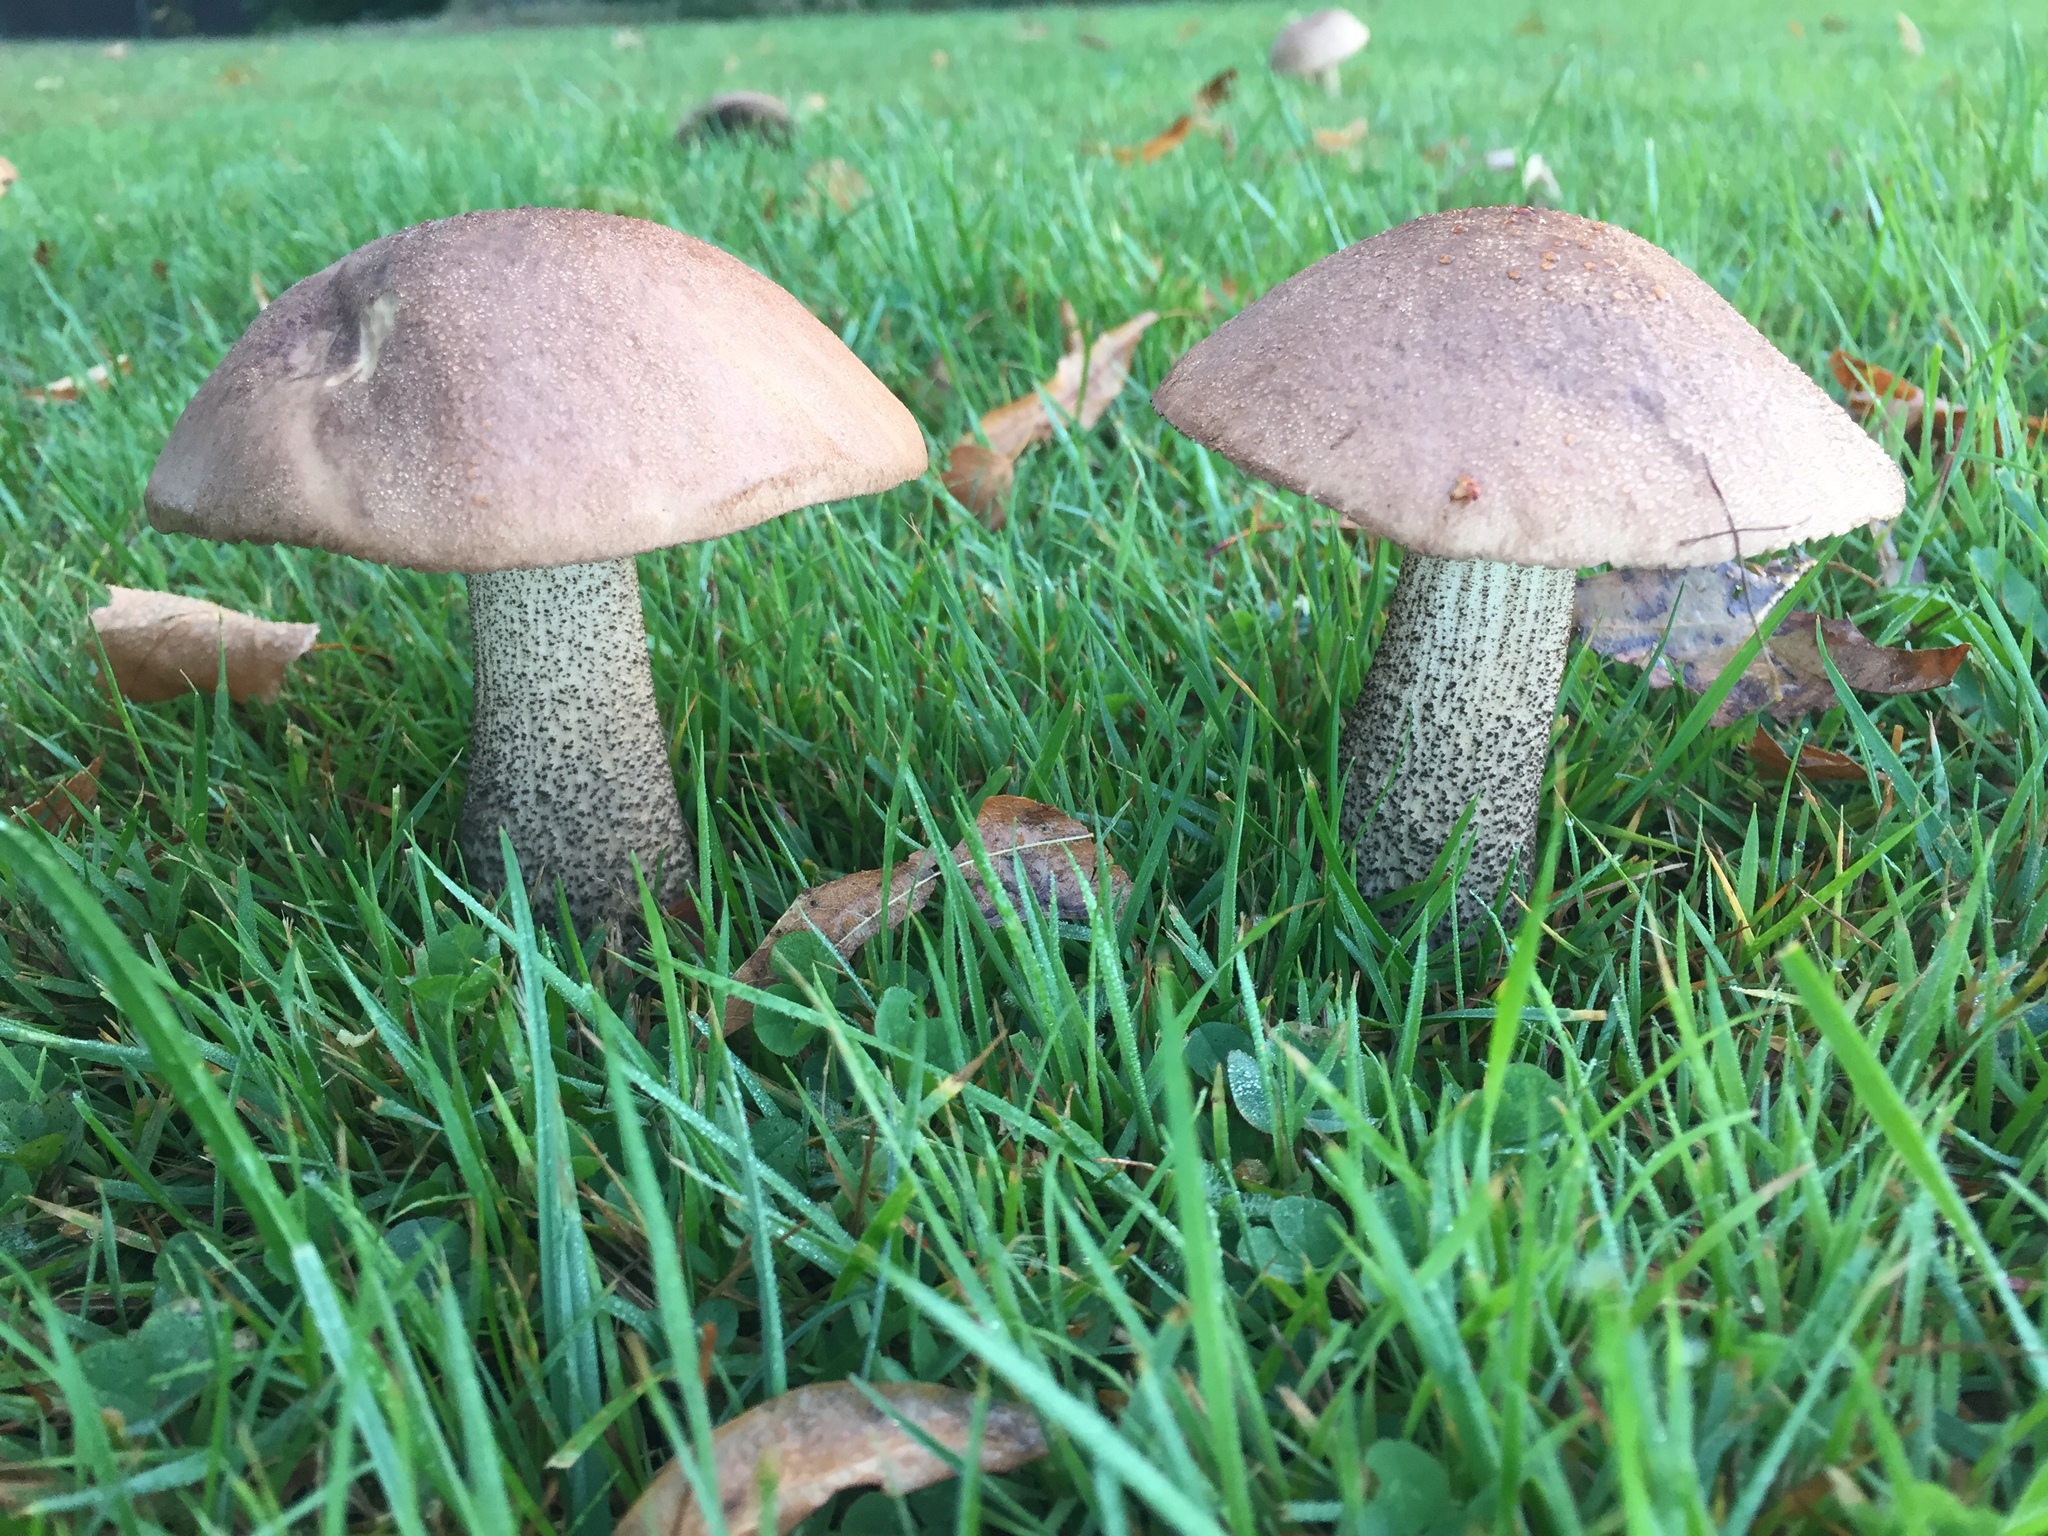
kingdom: Fungi
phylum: Basidiomycota
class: Agaricomycetes
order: Boletales
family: Boletaceae
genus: Leccinum
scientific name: Leccinum scabrum
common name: Blushing bolete
